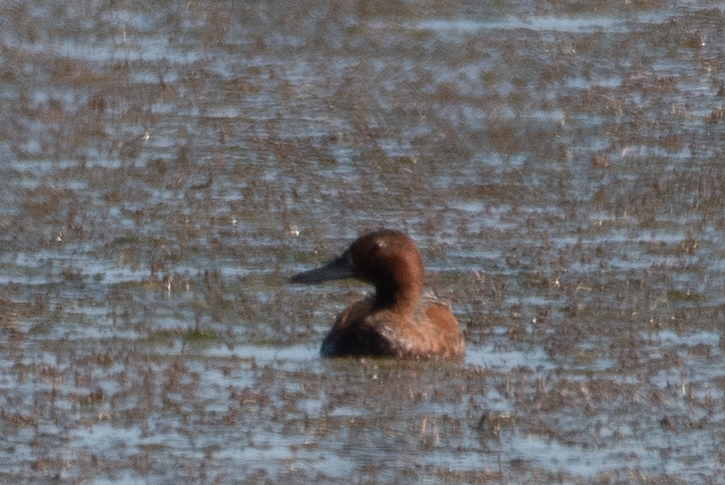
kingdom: Animalia
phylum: Chordata
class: Aves
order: Anseriformes
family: Anatidae
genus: Spatula
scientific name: Spatula cyanoptera
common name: Cinnamon teal
